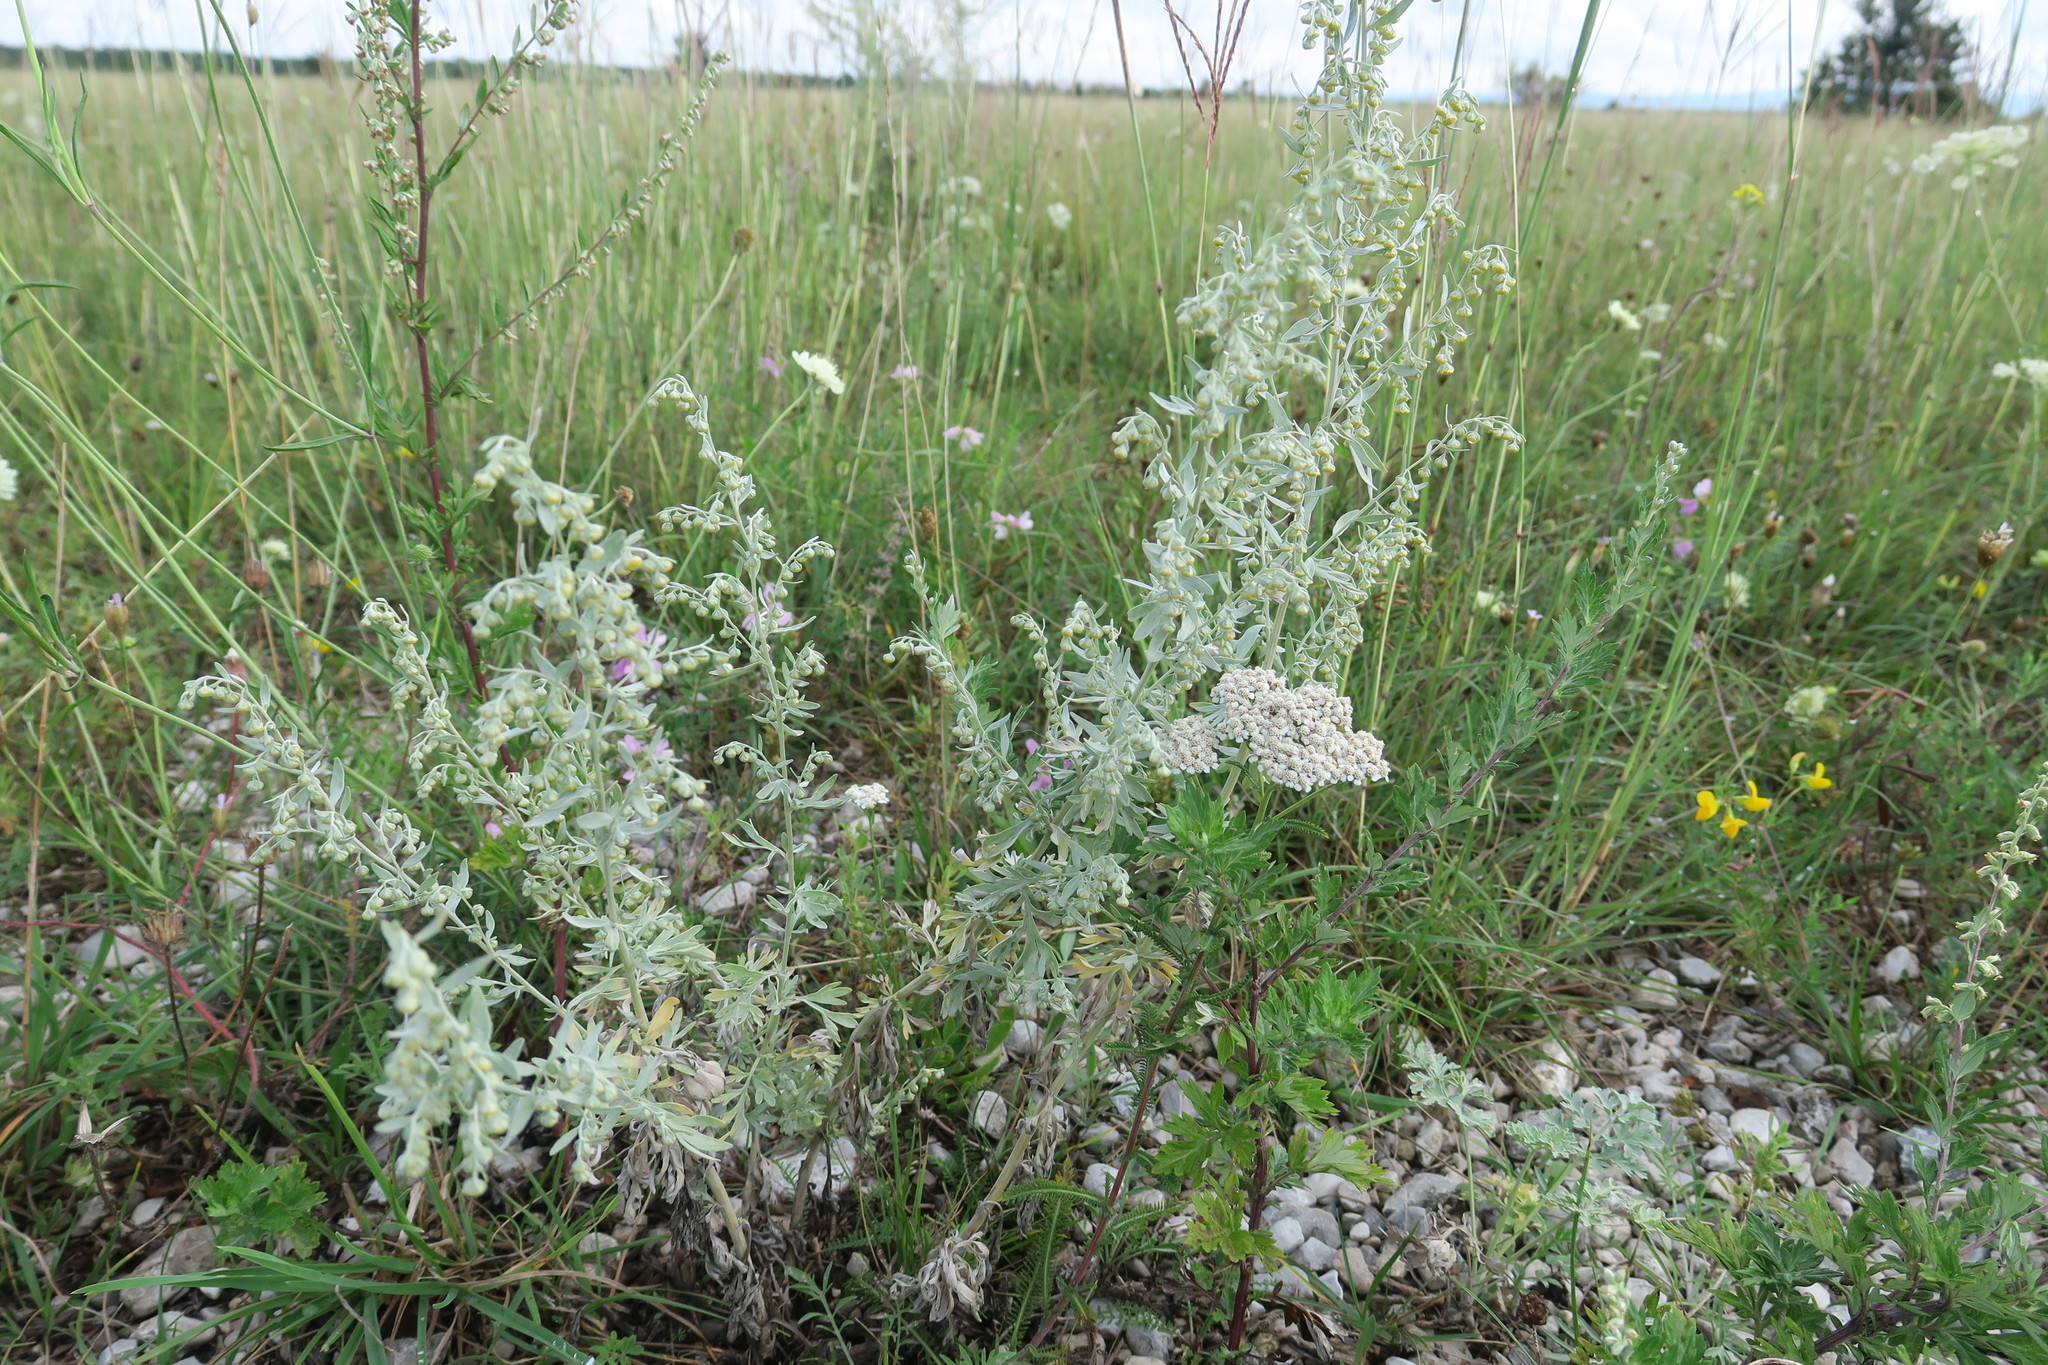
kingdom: Plantae
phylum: Tracheophyta
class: Magnoliopsida
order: Asterales
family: Asteraceae
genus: Artemisia
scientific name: Artemisia absinthium
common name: Wormwood
